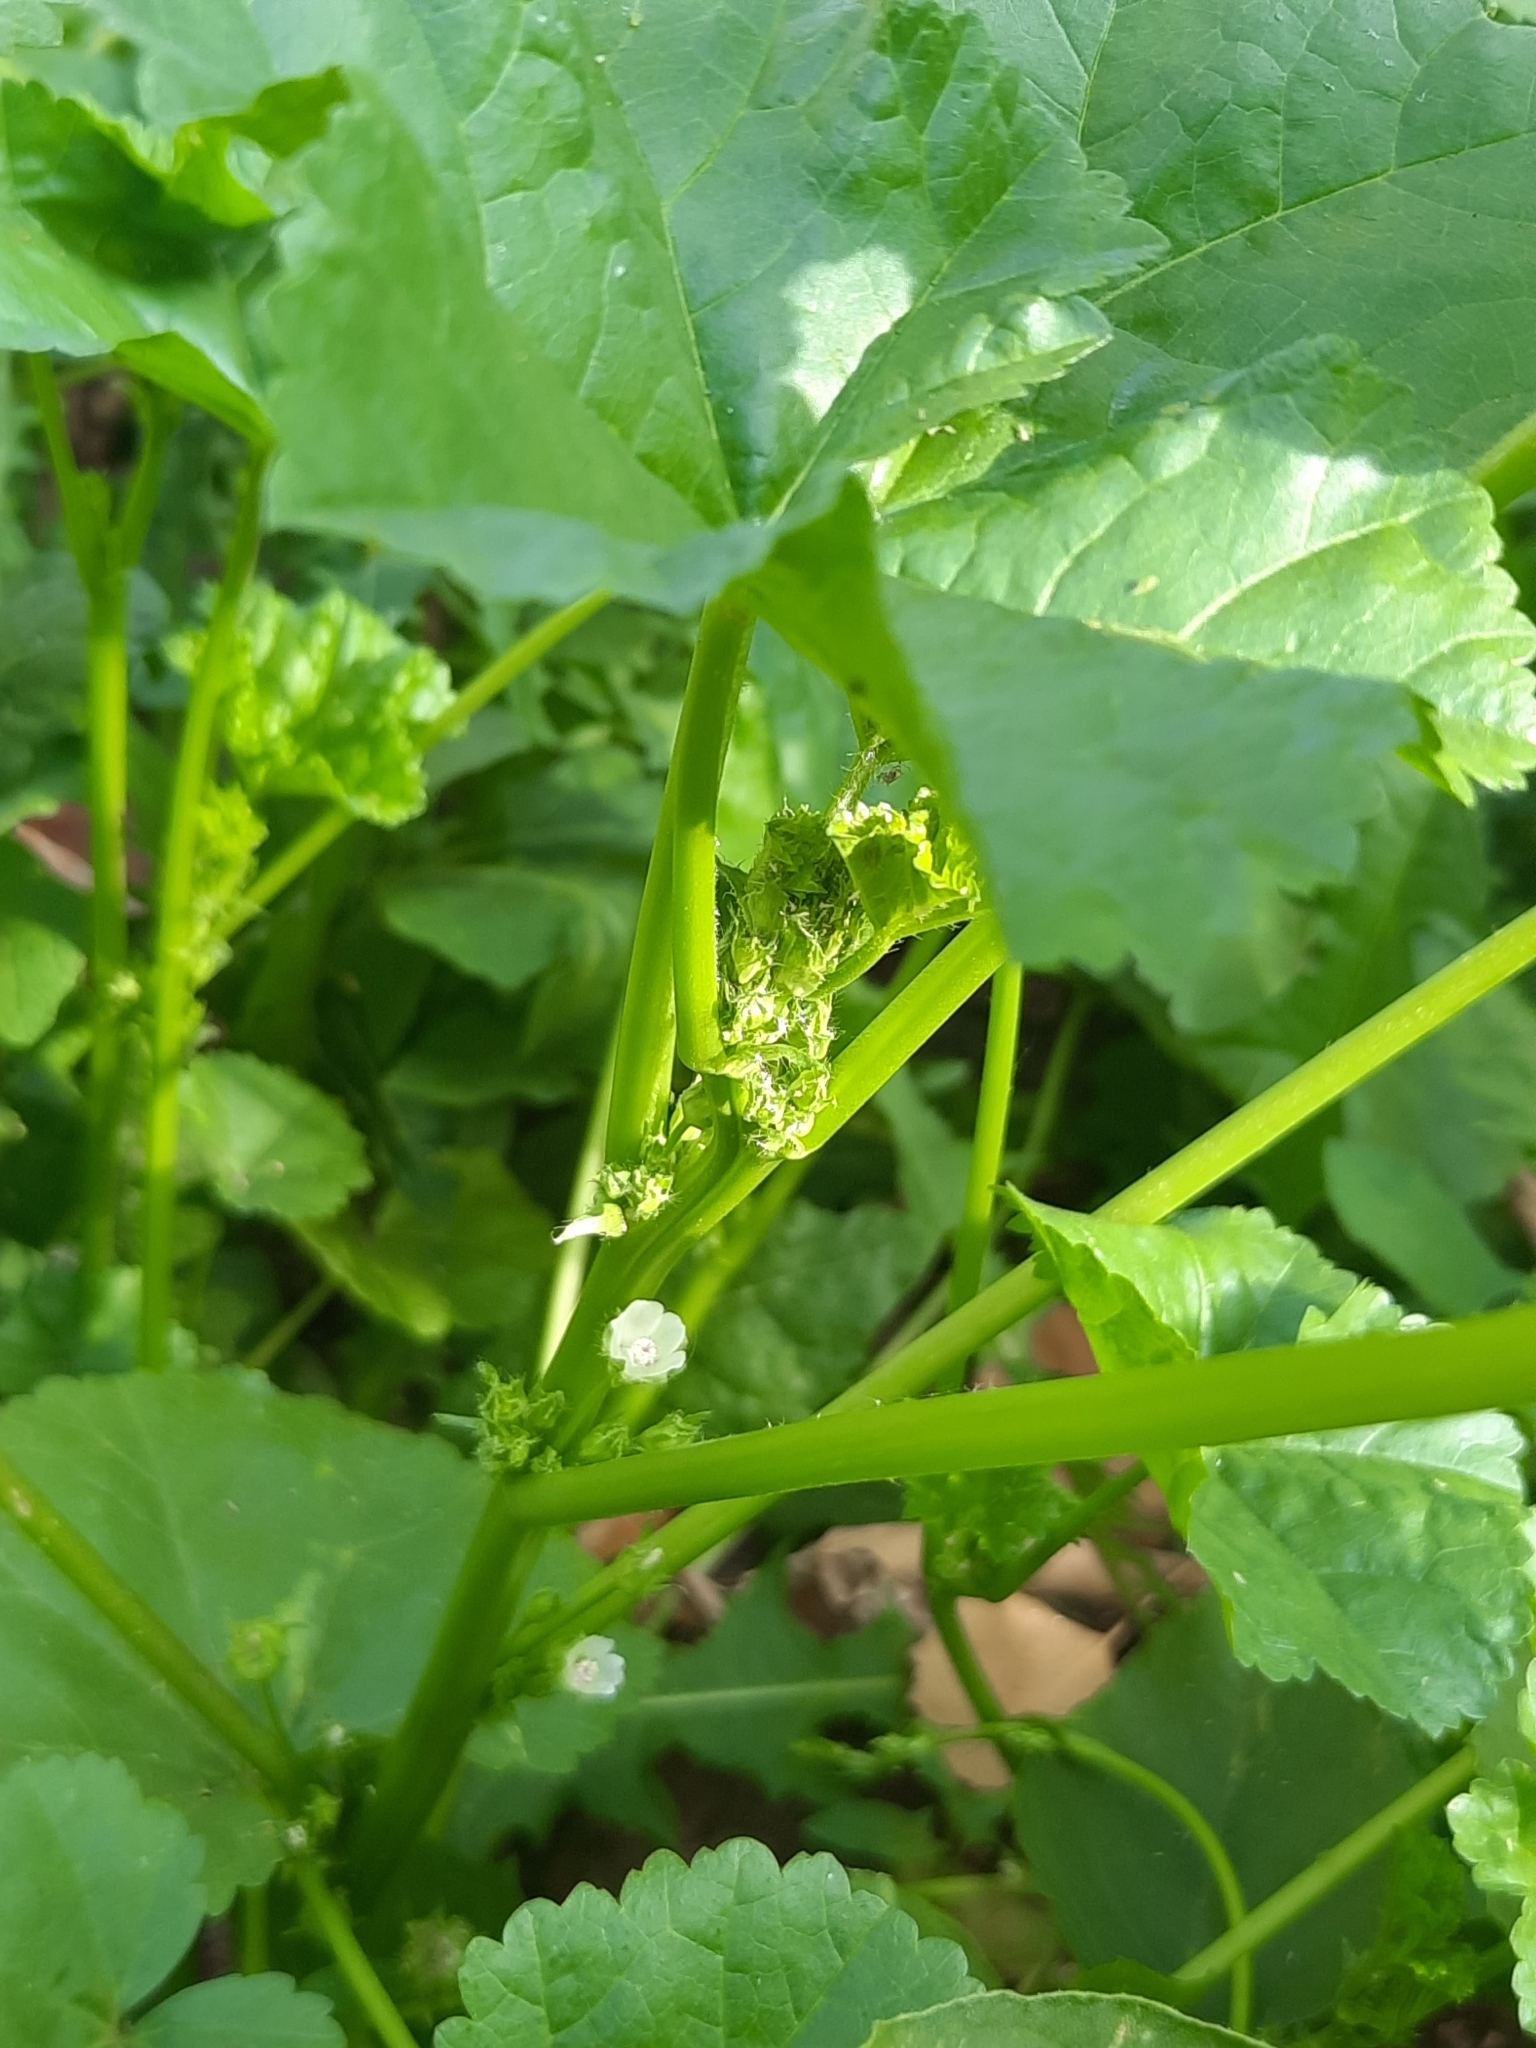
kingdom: Plantae
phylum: Tracheophyta
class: Magnoliopsida
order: Malvales
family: Malvaceae
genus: Malva
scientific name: Malva pusilla
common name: Small mallow
